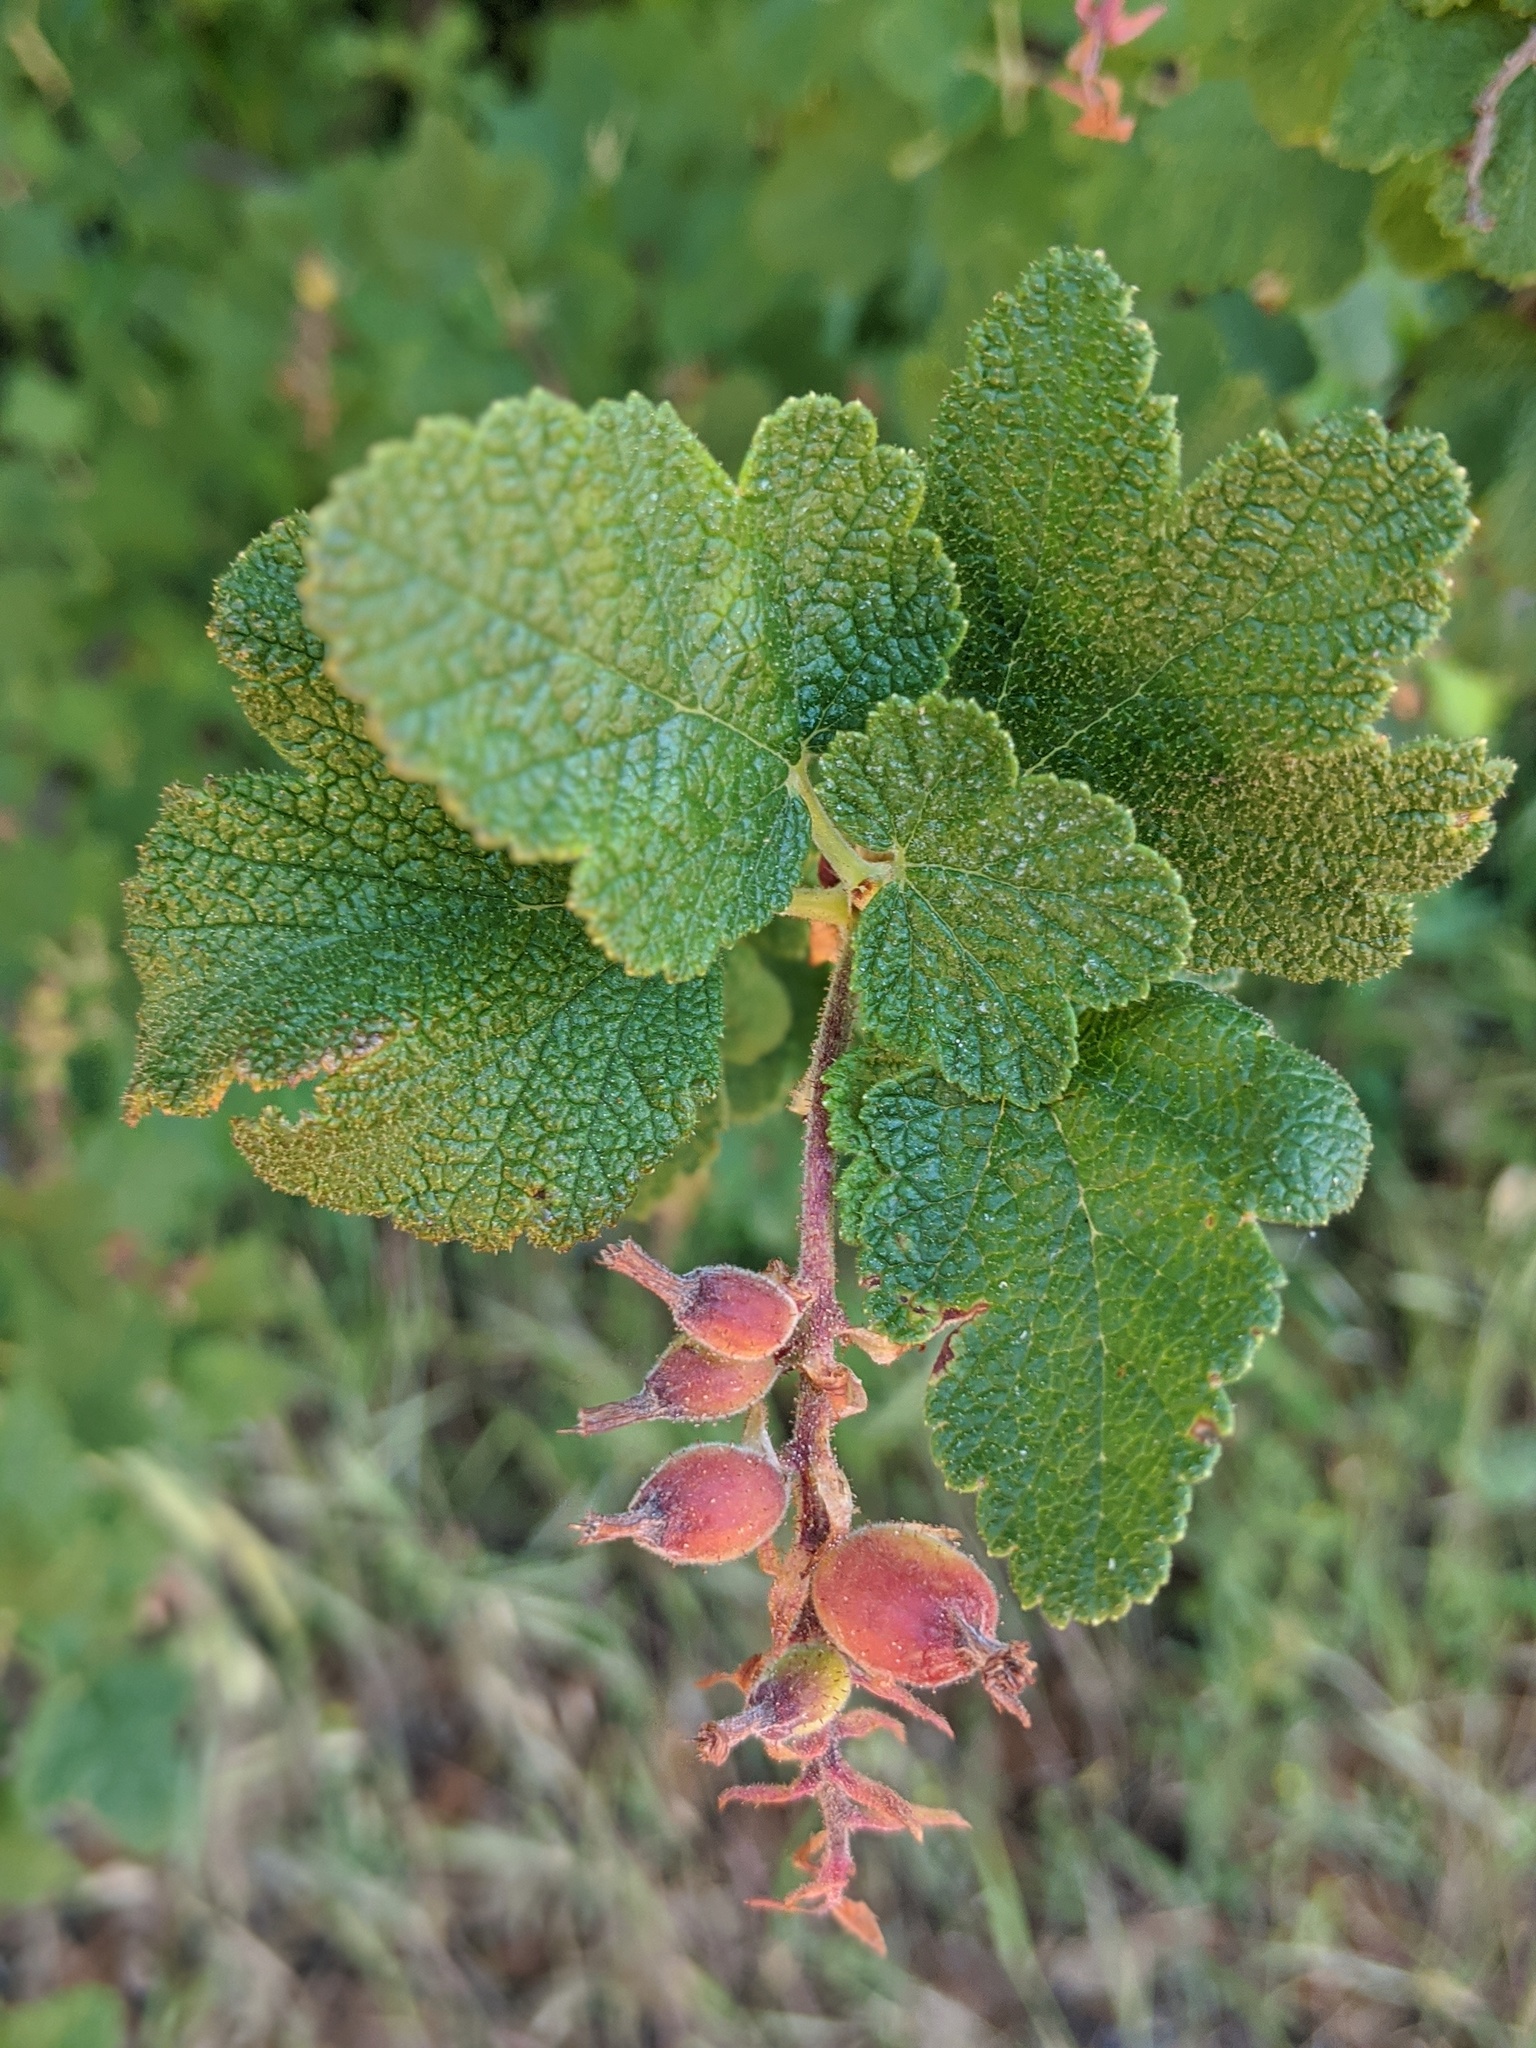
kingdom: Plantae
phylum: Tracheophyta
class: Magnoliopsida
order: Saxifragales
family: Grossulariaceae
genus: Ribes
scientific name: Ribes malvaceum
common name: Chaparral currant
